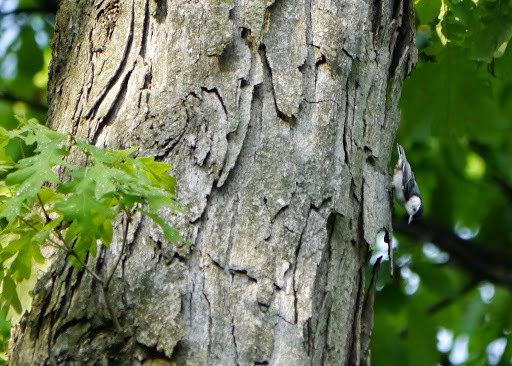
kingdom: Animalia
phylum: Chordata
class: Aves
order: Passeriformes
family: Sittidae
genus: Sitta
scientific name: Sitta carolinensis
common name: White-breasted nuthatch
